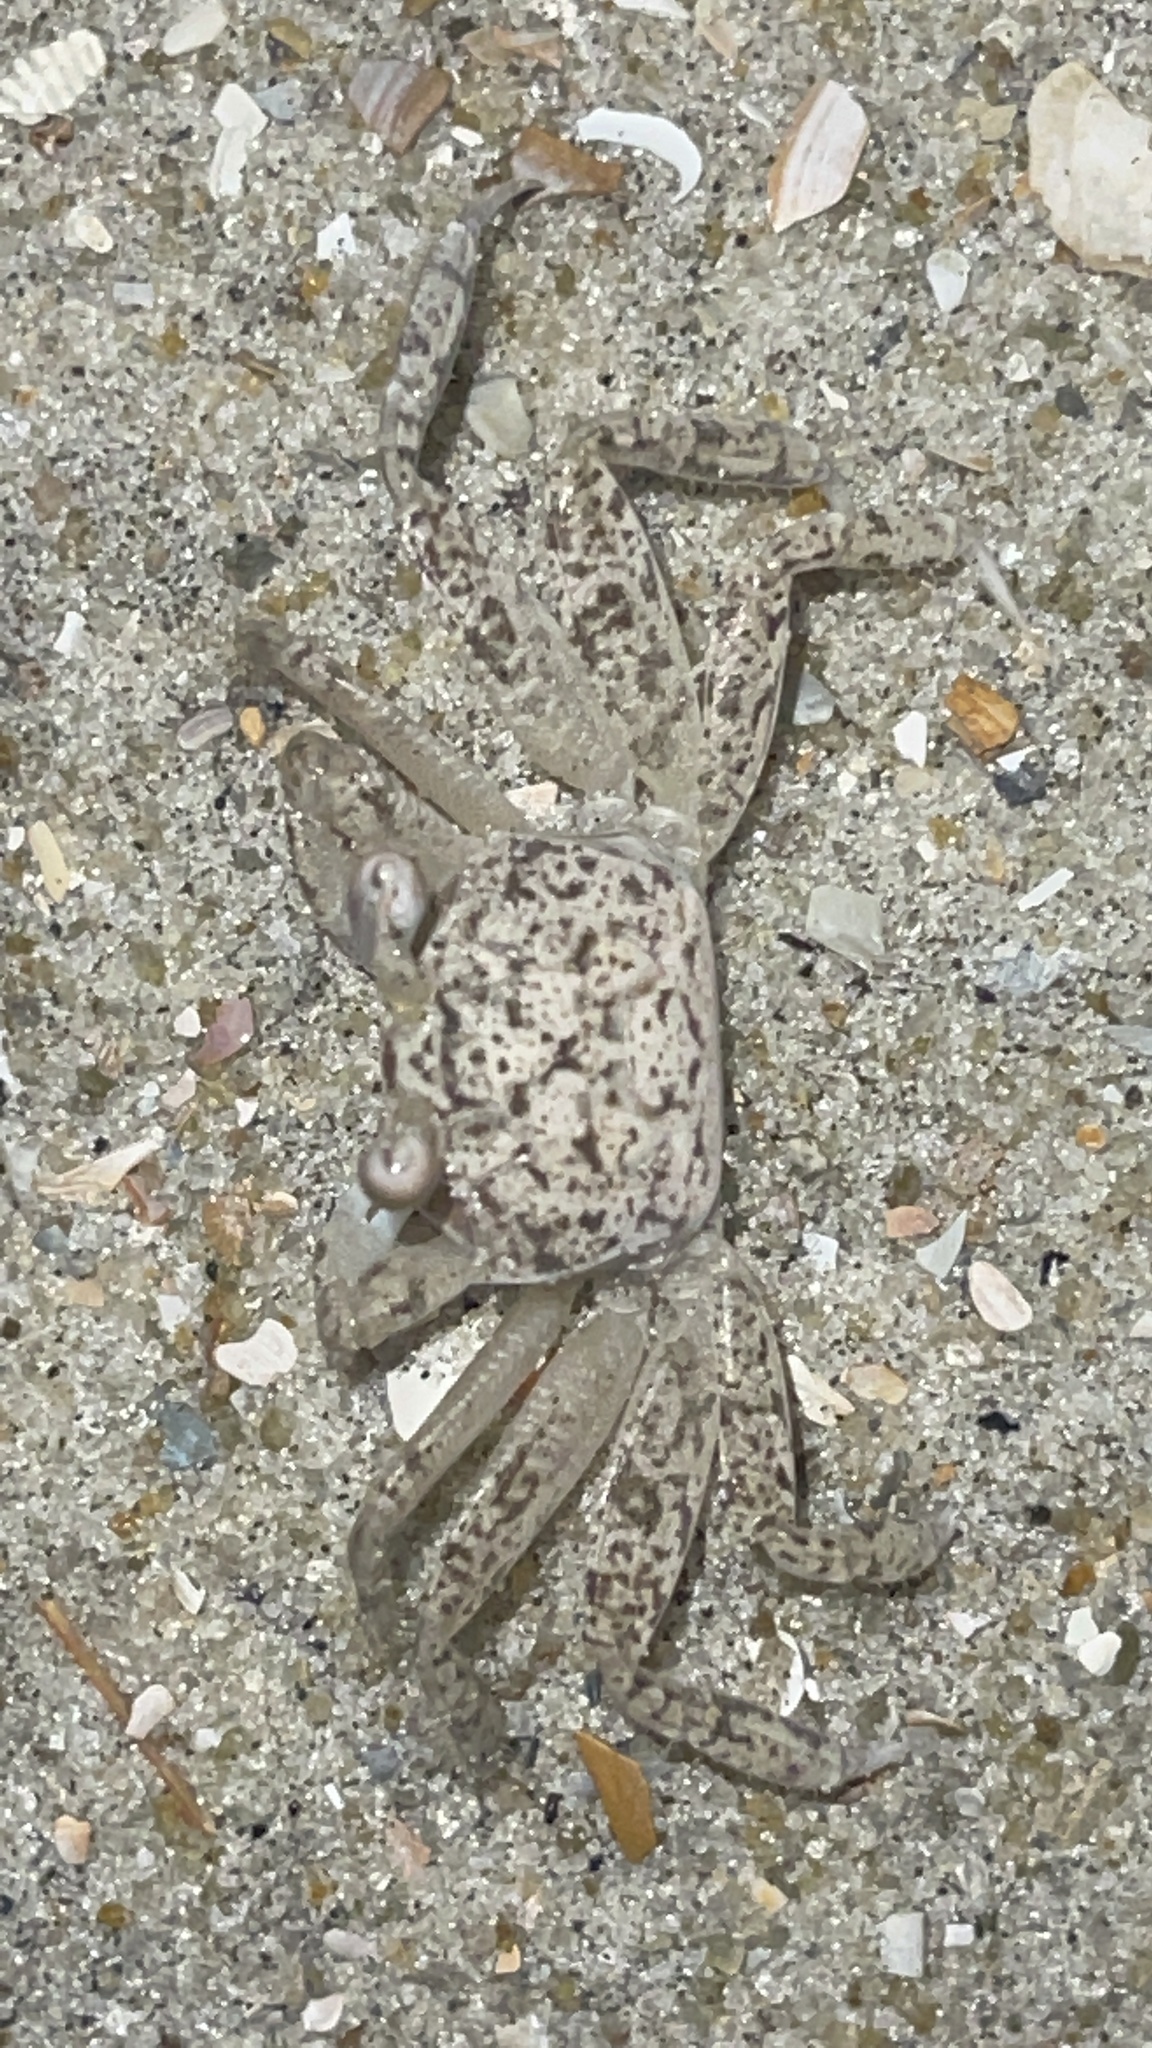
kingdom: Animalia
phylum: Arthropoda
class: Malacostraca
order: Decapoda
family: Ocypodidae
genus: Ocypode
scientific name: Ocypode quadrata
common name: Ghost crab
